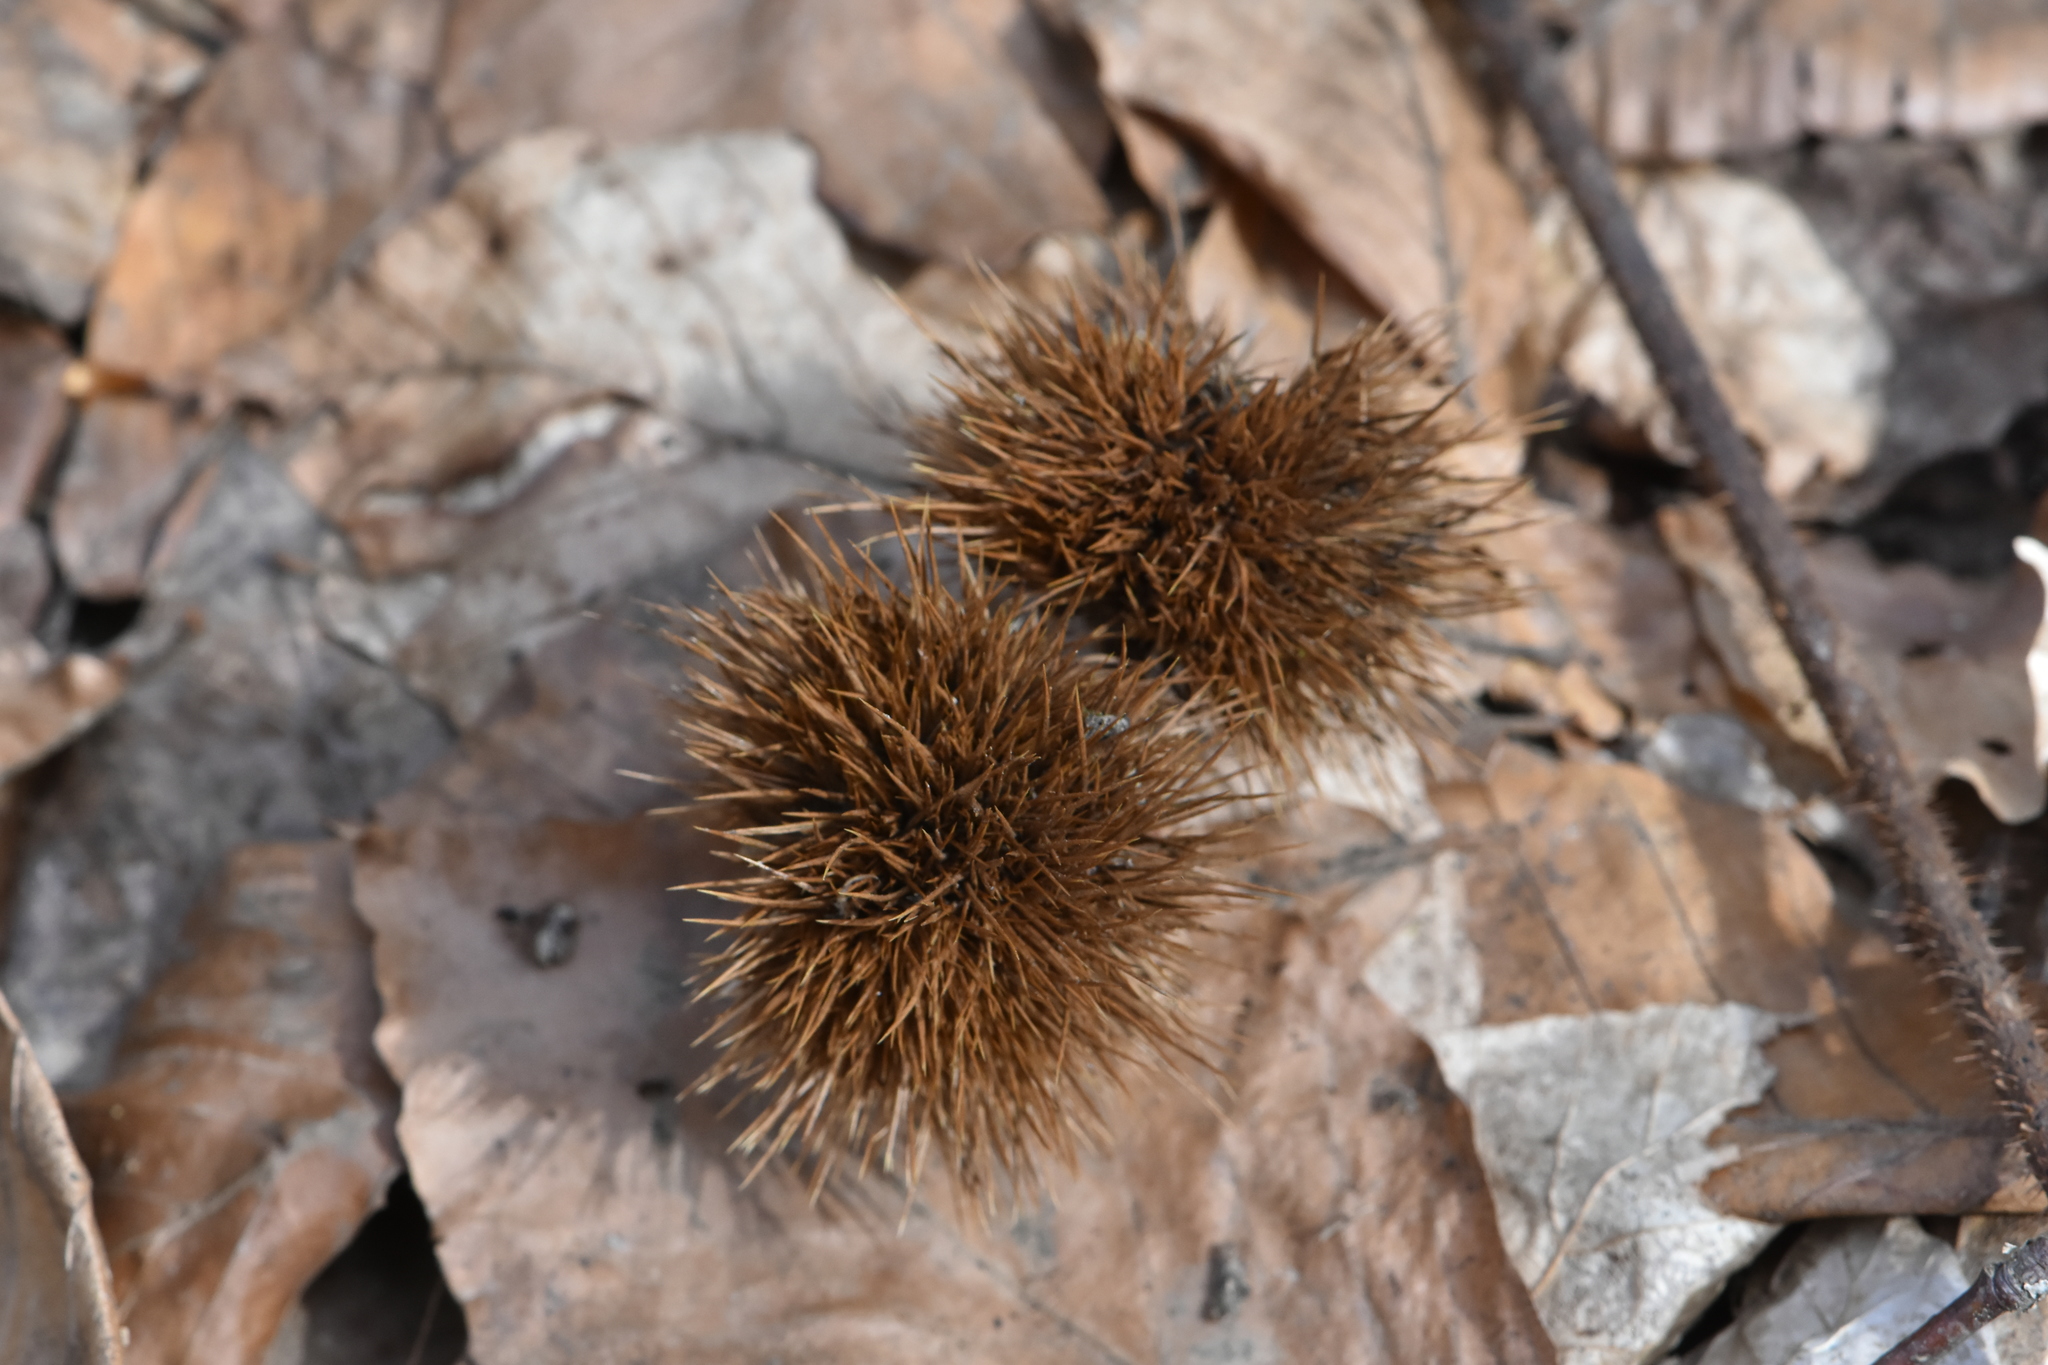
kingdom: Plantae
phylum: Tracheophyta
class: Magnoliopsida
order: Fagales
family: Fagaceae
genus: Castanea
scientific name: Castanea sativa
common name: Sweet chestnut
